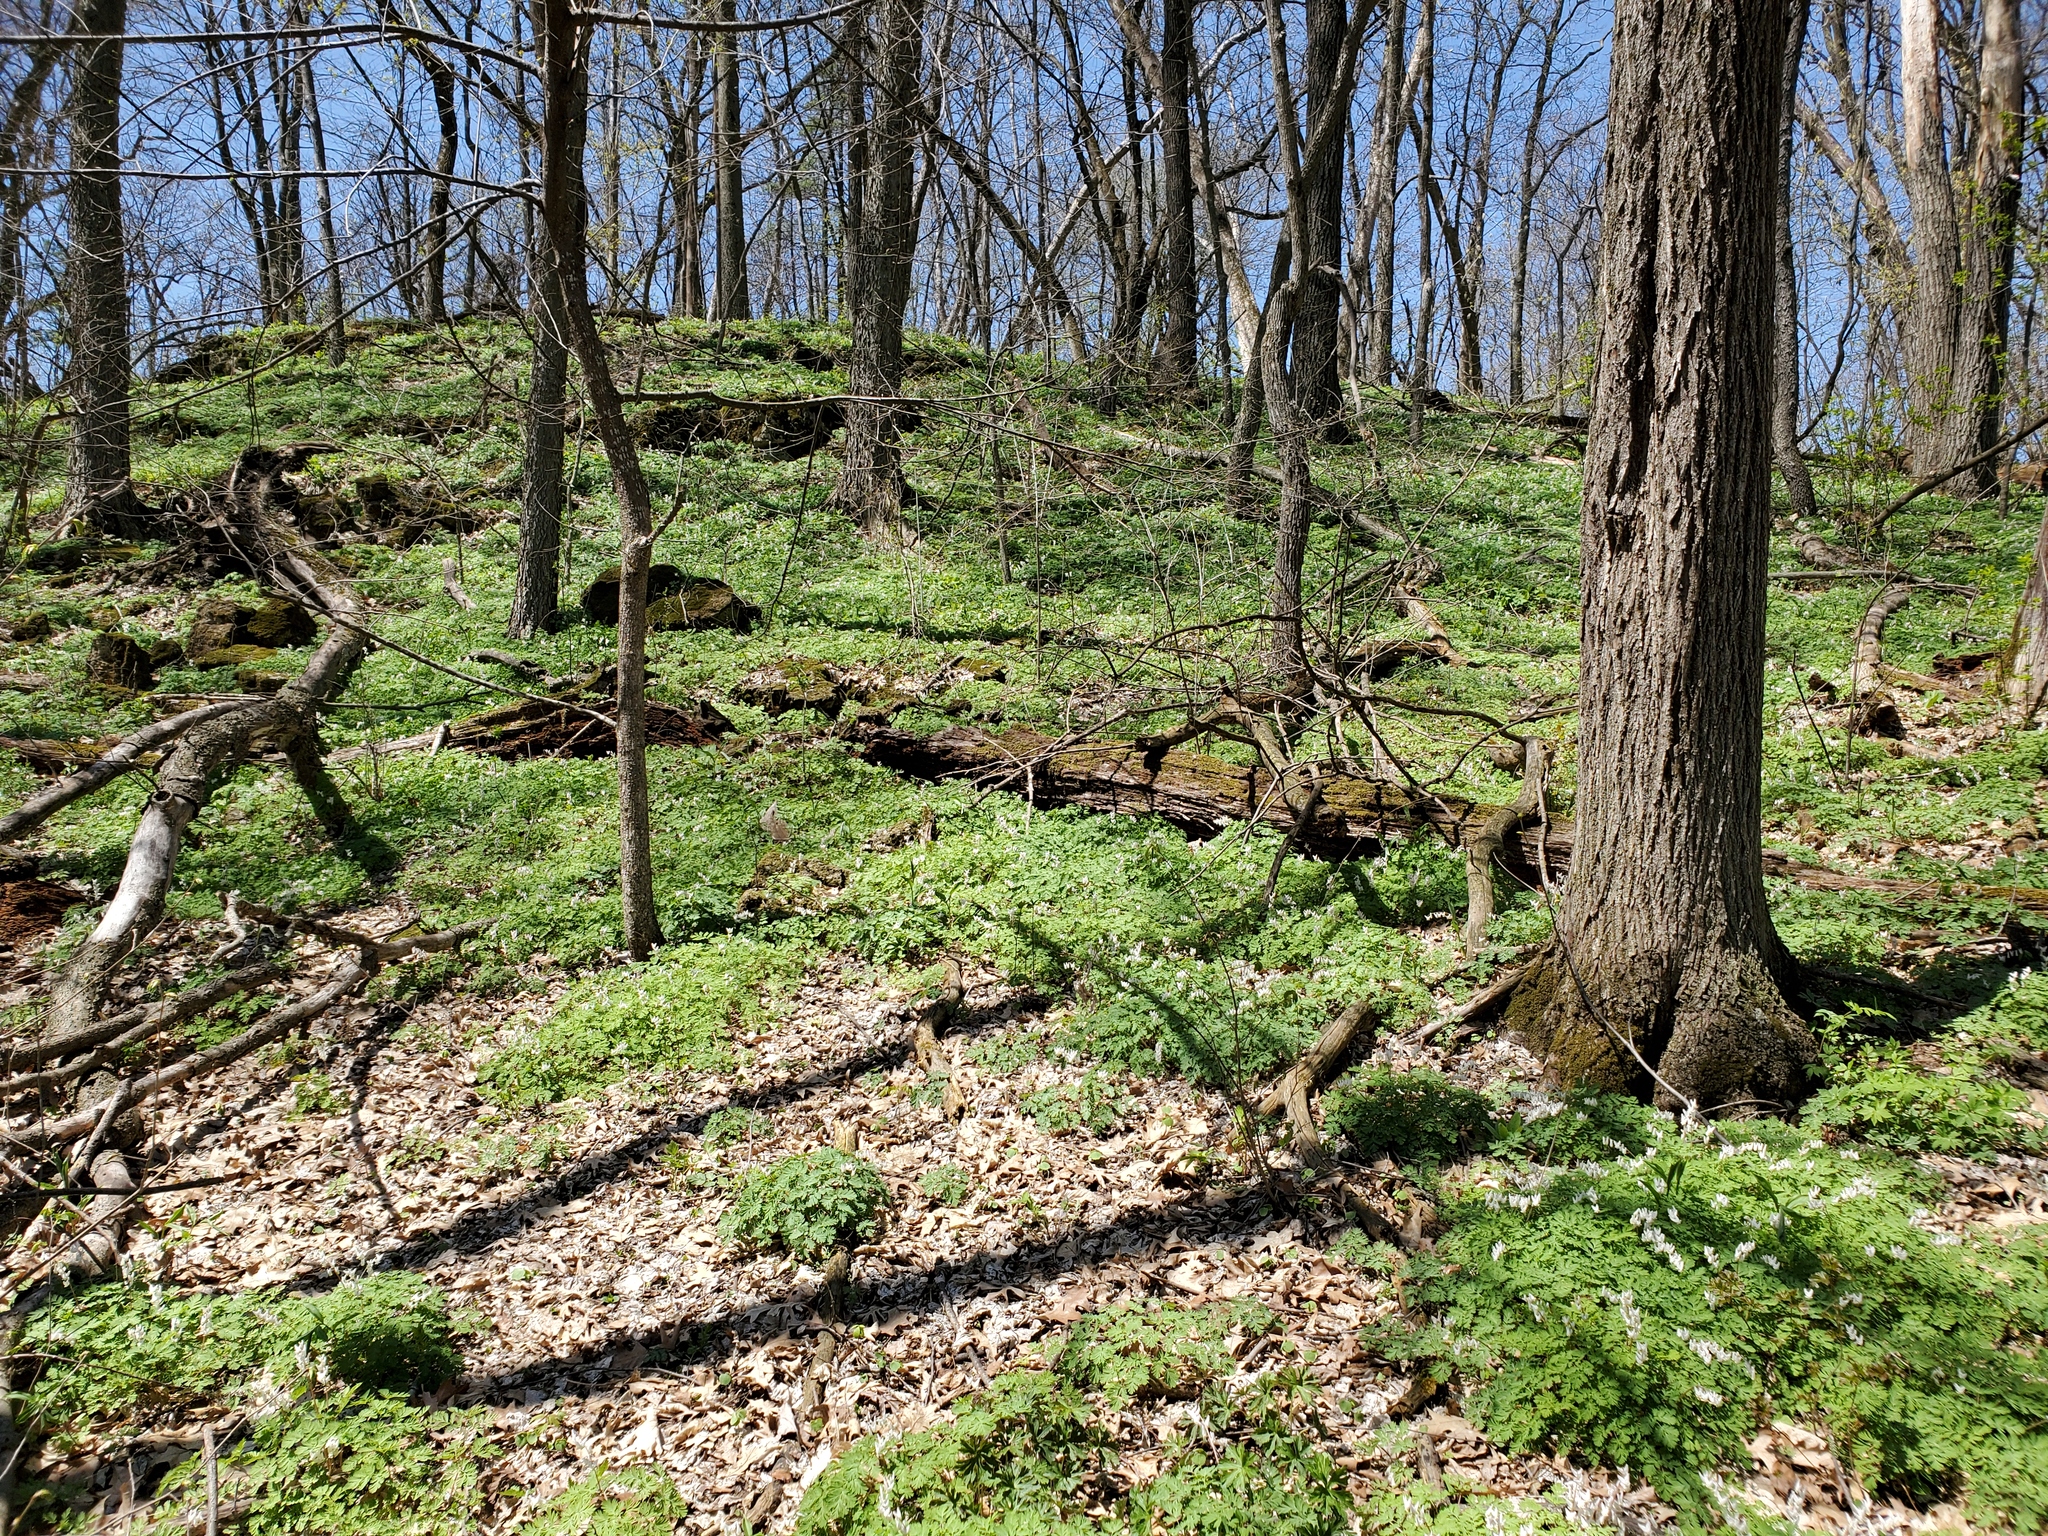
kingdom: Plantae
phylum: Tracheophyta
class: Magnoliopsida
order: Ranunculales
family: Papaveraceae
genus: Dicentra
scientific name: Dicentra cucullaria
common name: Dutchman's breeches
